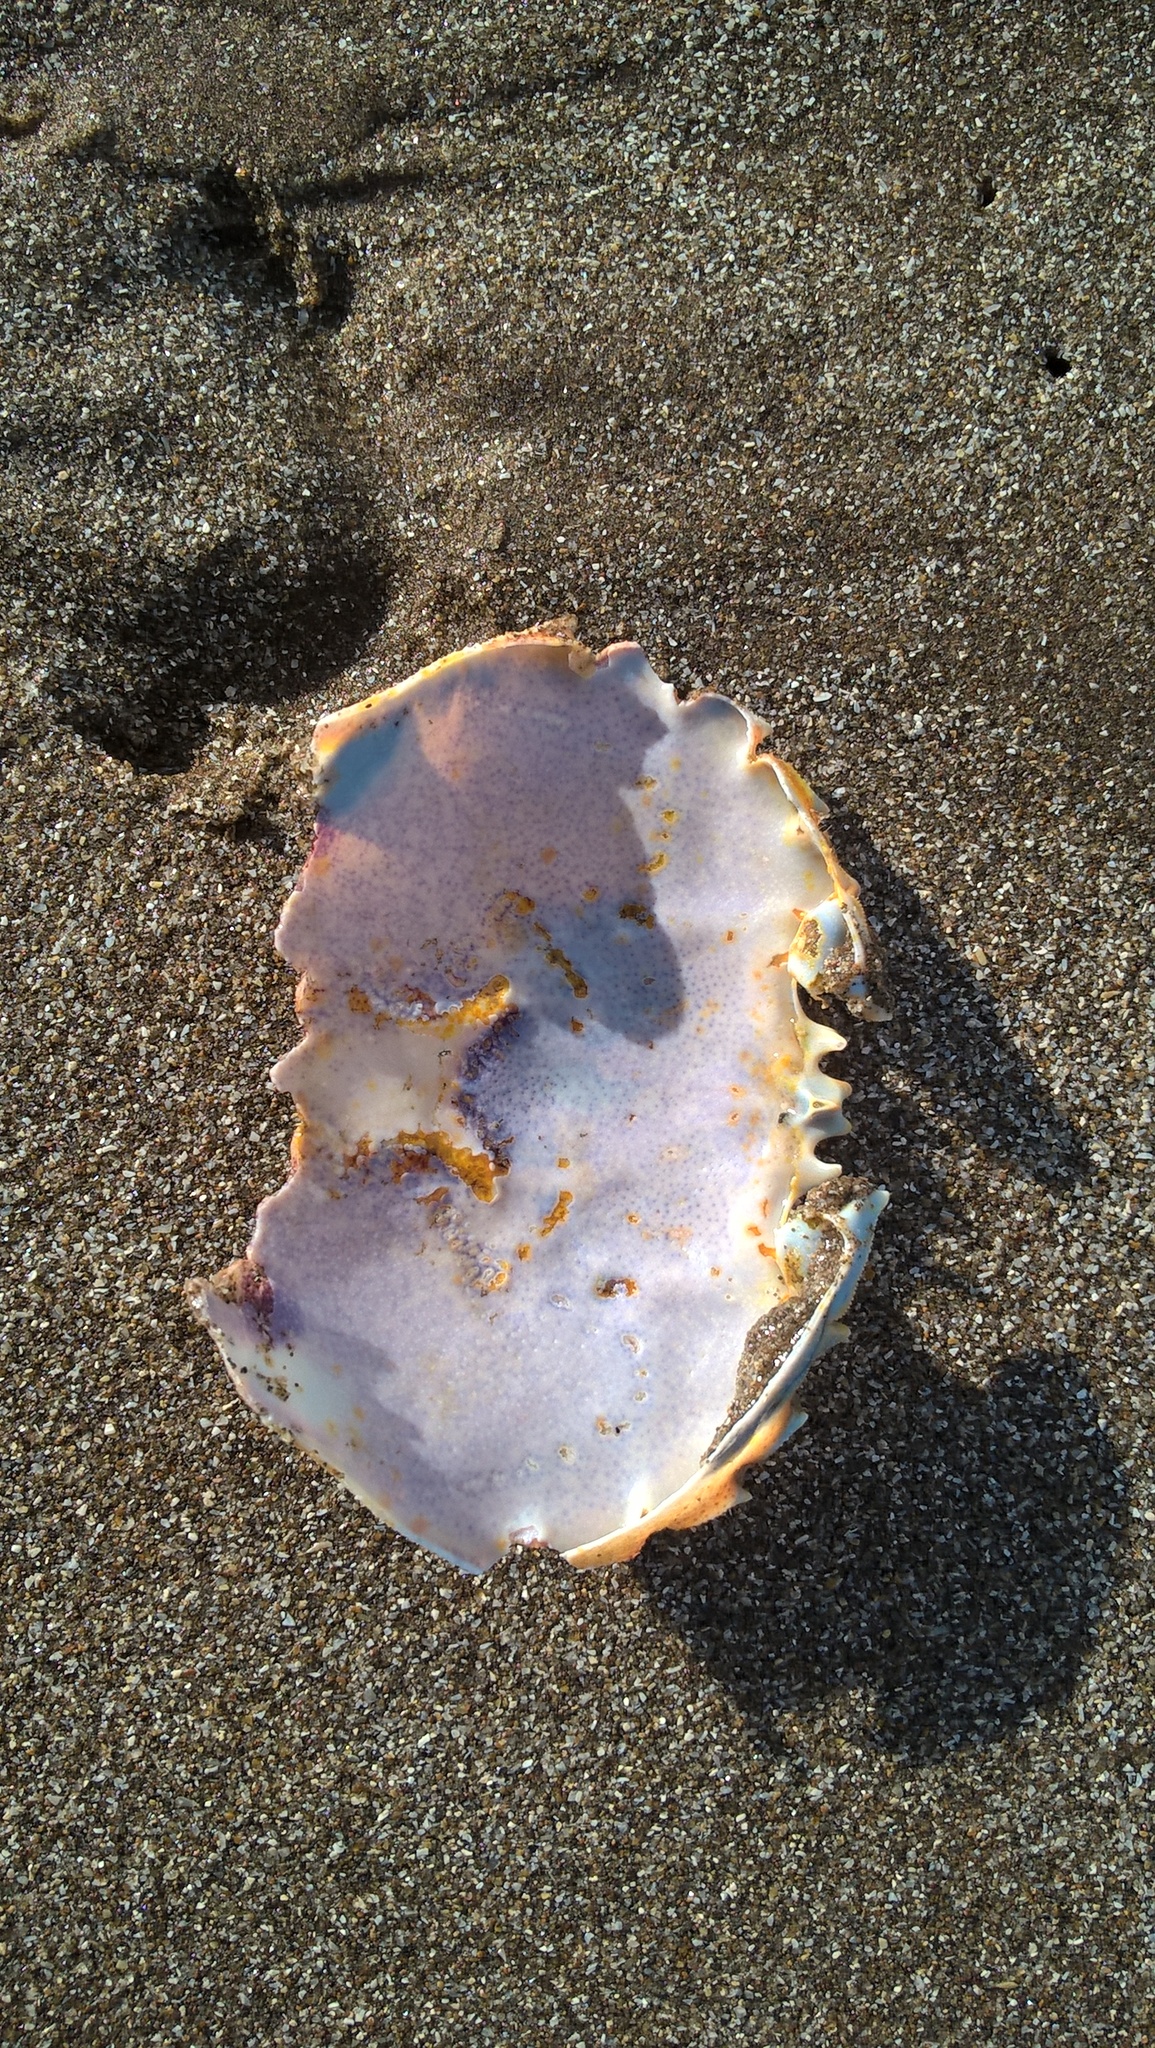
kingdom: Animalia
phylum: Arthropoda
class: Malacostraca
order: Decapoda
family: Ovalipidae
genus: Ovalipes
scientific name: Ovalipes trimaculatus
